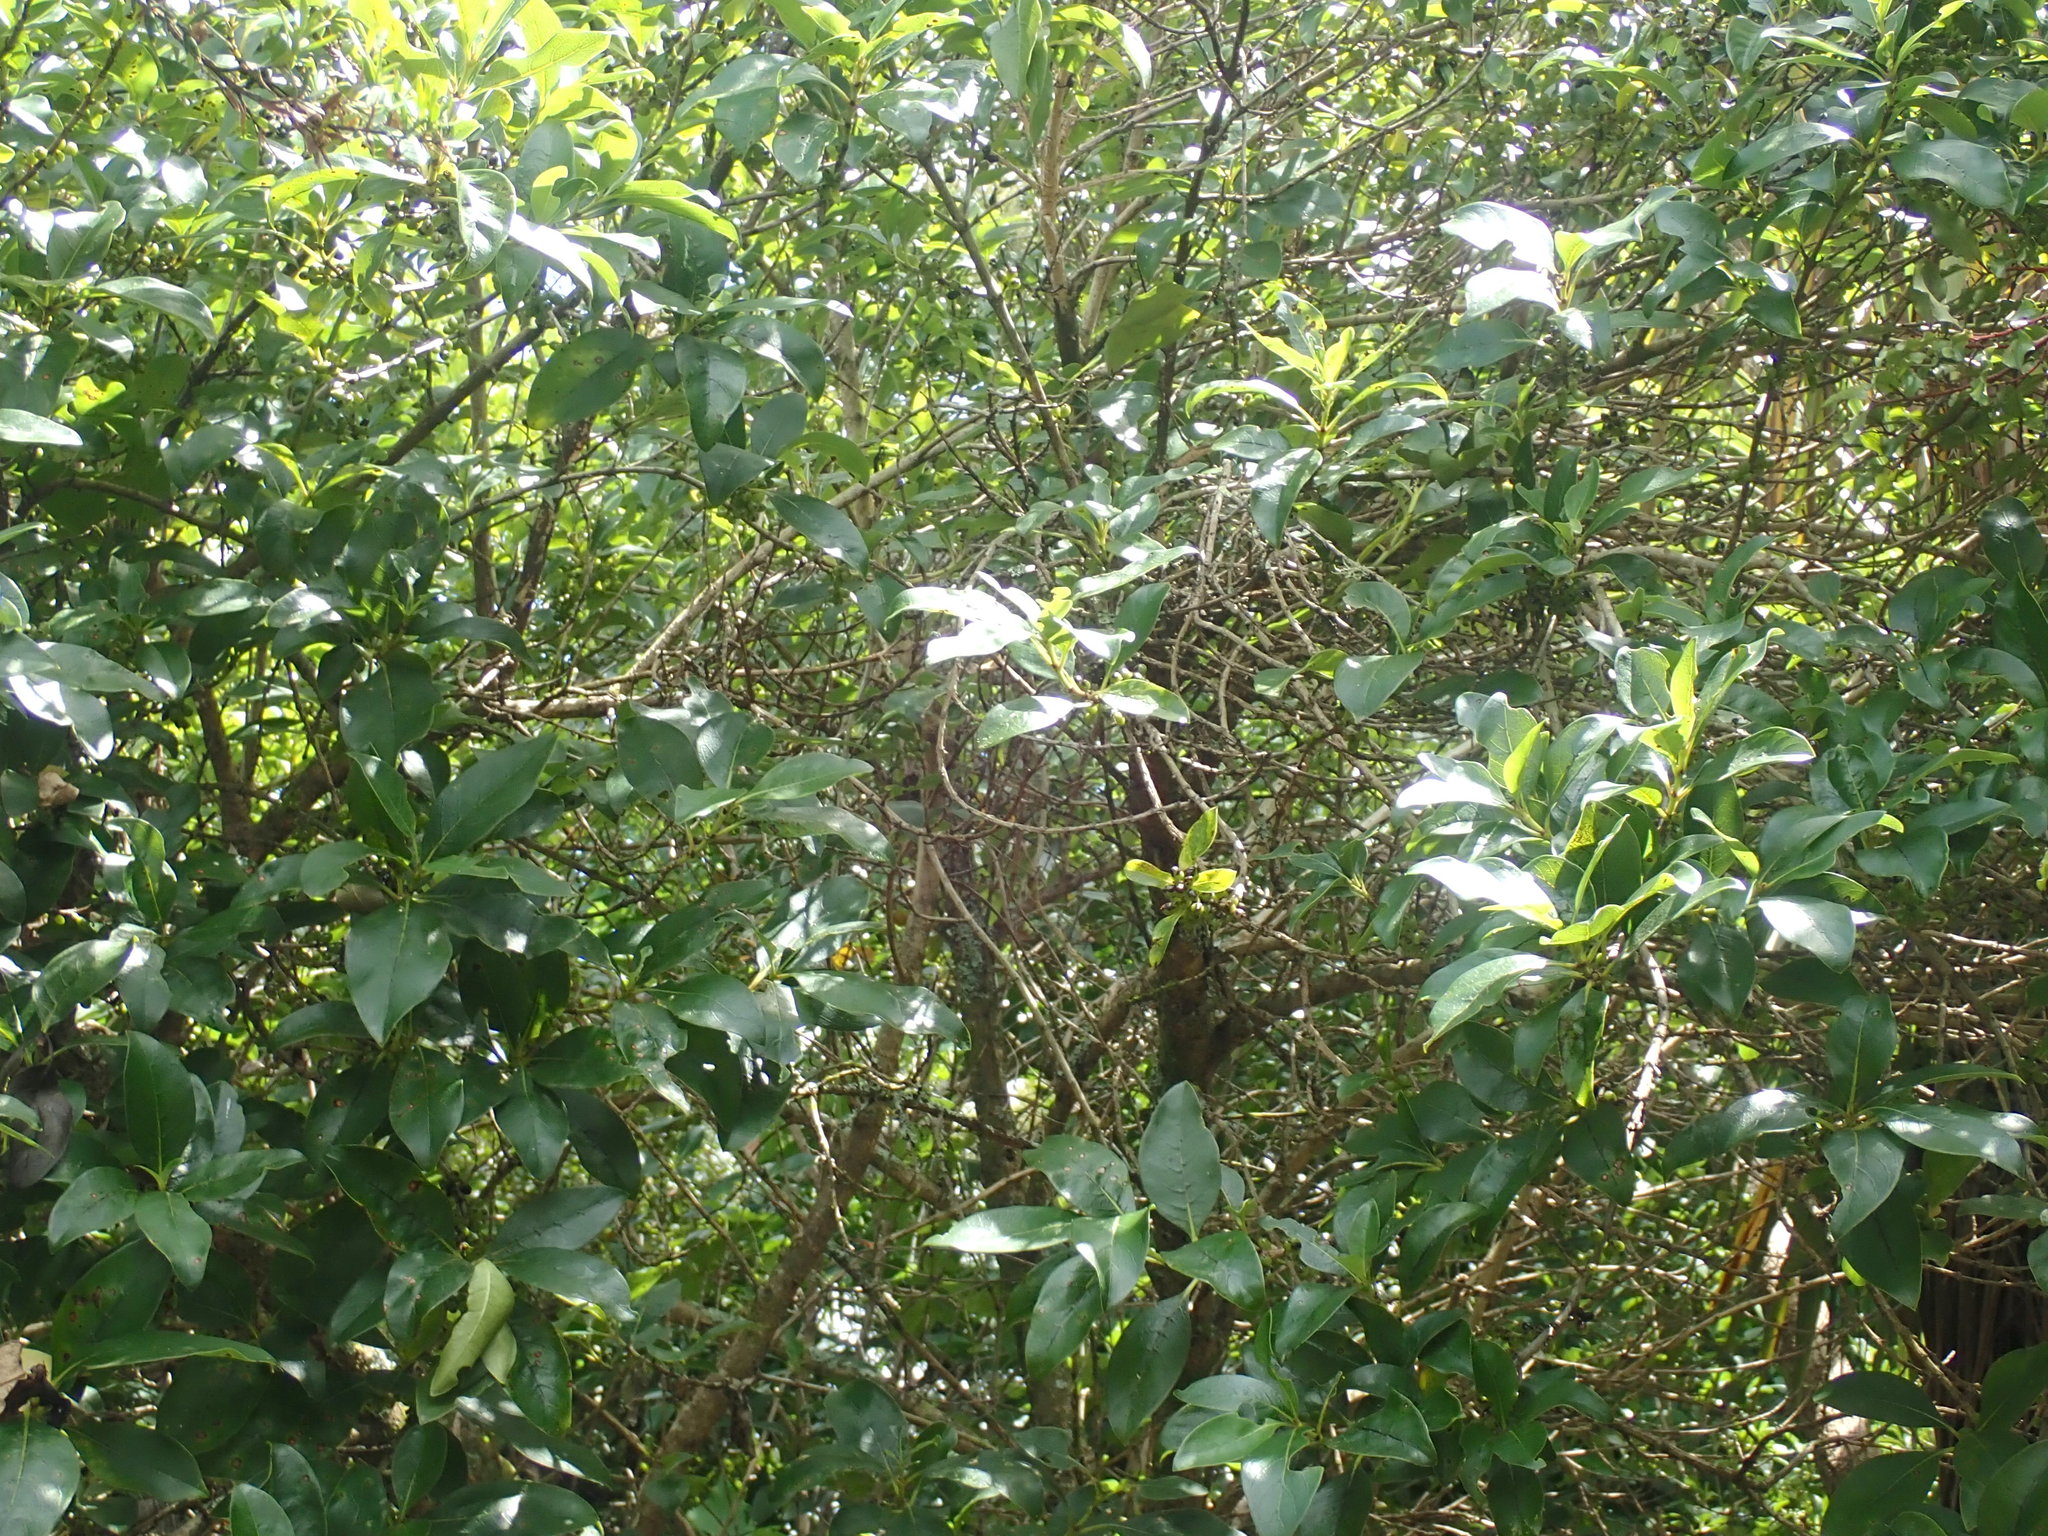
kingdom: Plantae
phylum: Tracheophyta
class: Magnoliopsida
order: Gentianales
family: Rubiaceae
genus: Coprosma
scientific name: Coprosma robusta
